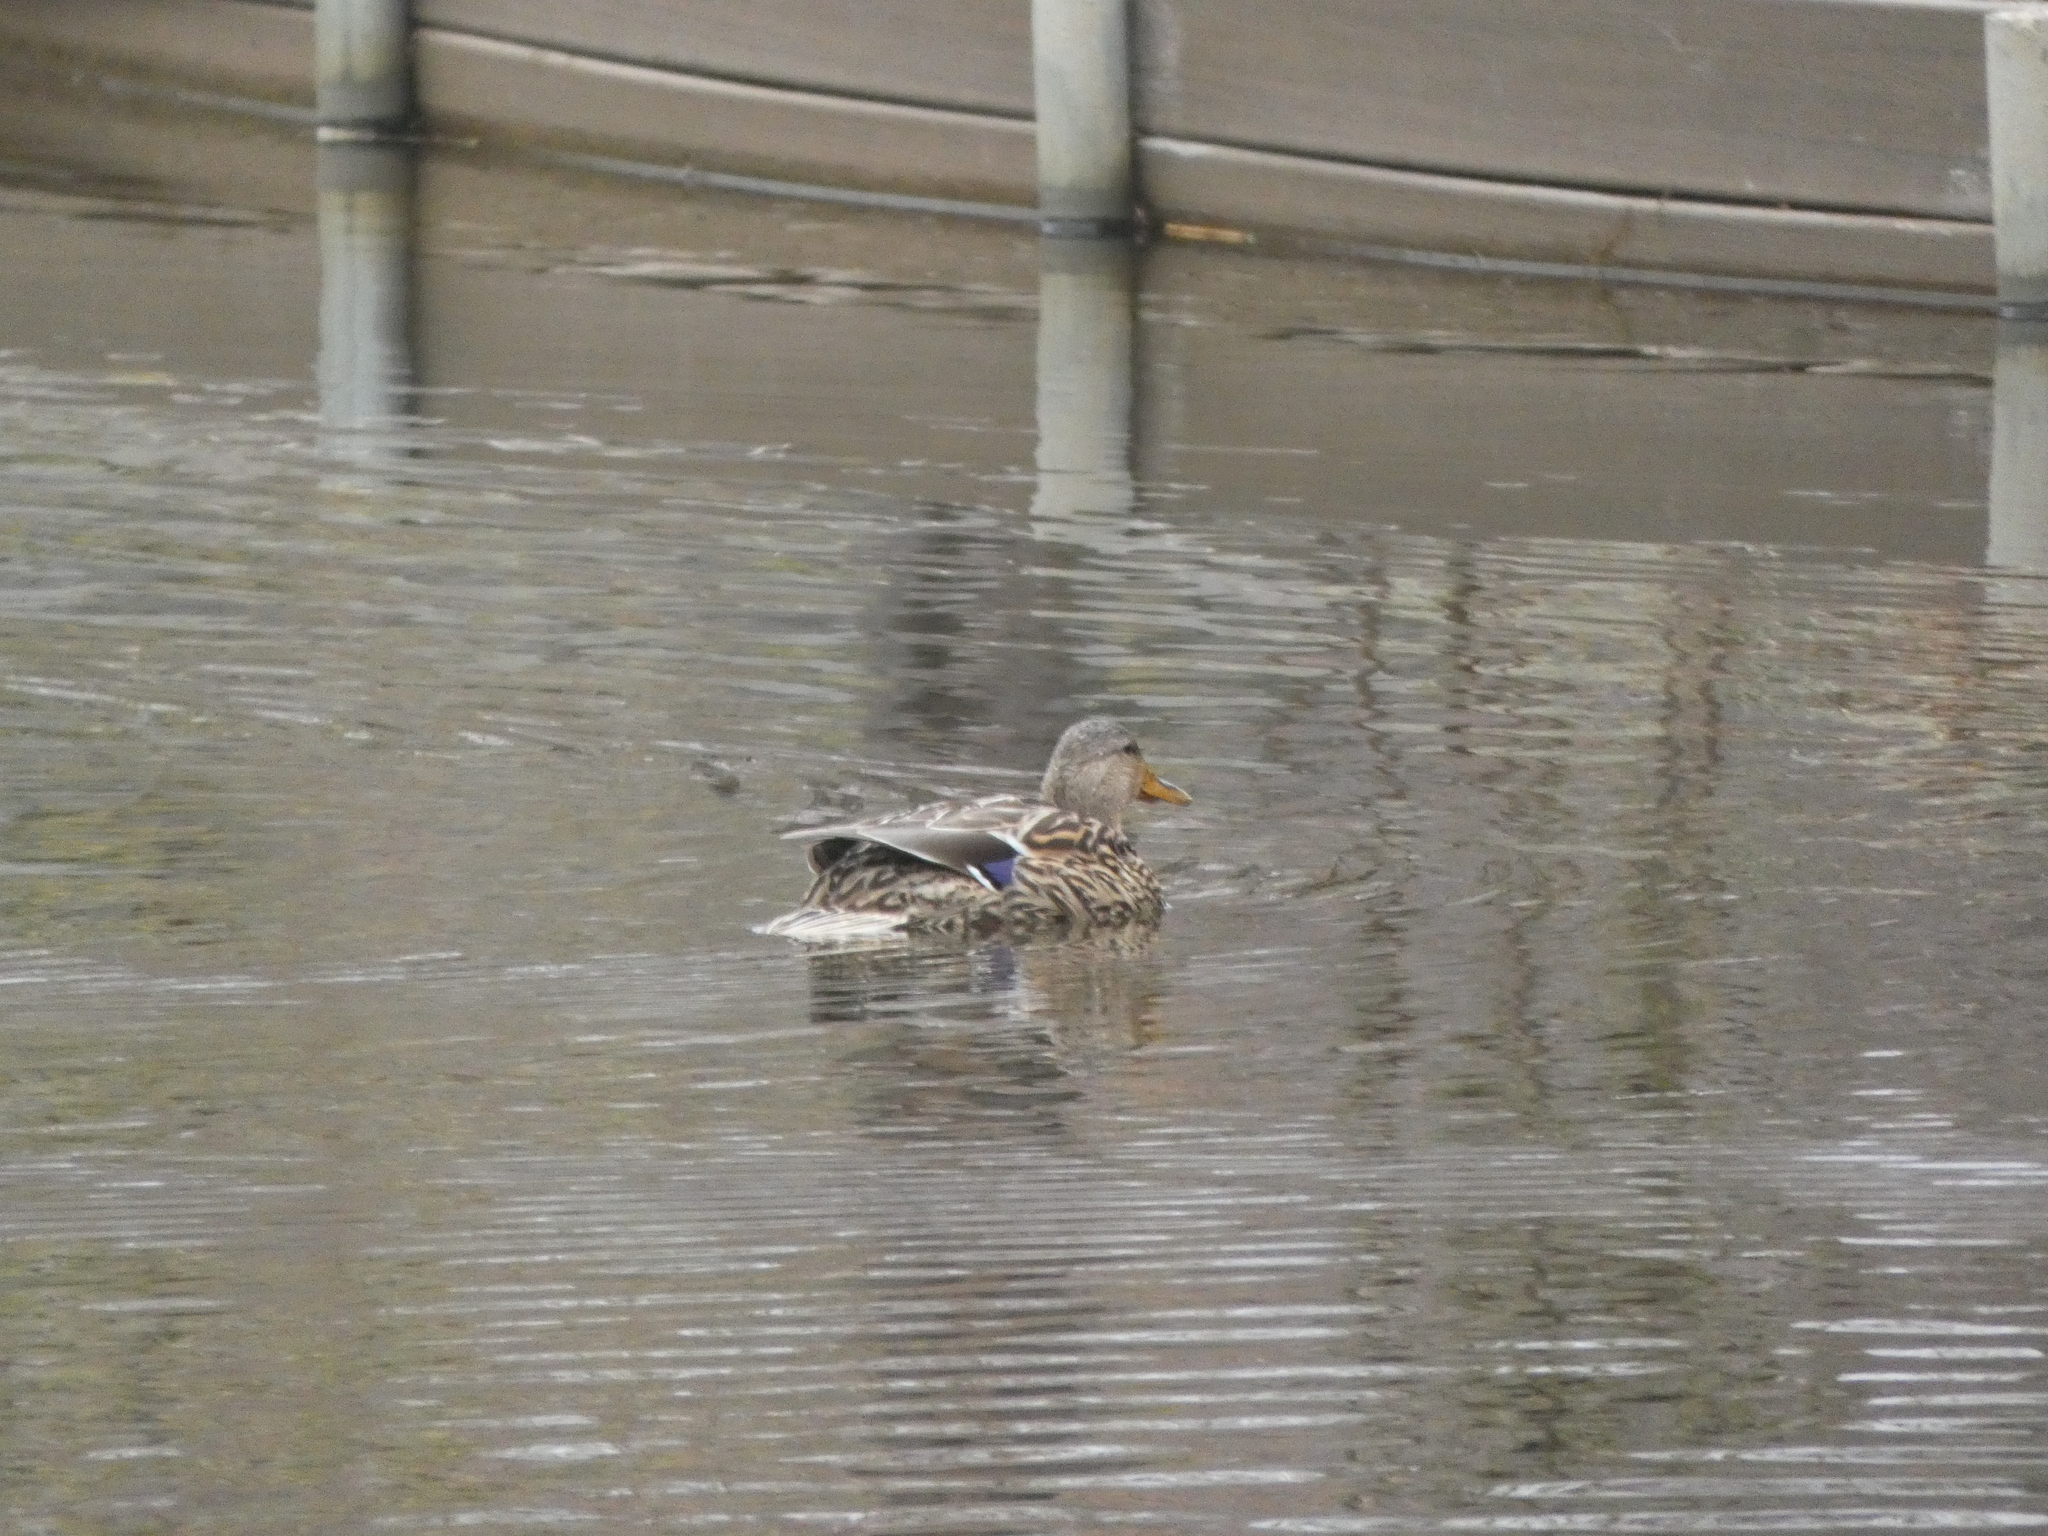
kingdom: Animalia
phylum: Chordata
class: Aves
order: Anseriformes
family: Anatidae
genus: Anas
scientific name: Anas platyrhynchos
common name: Mallard
